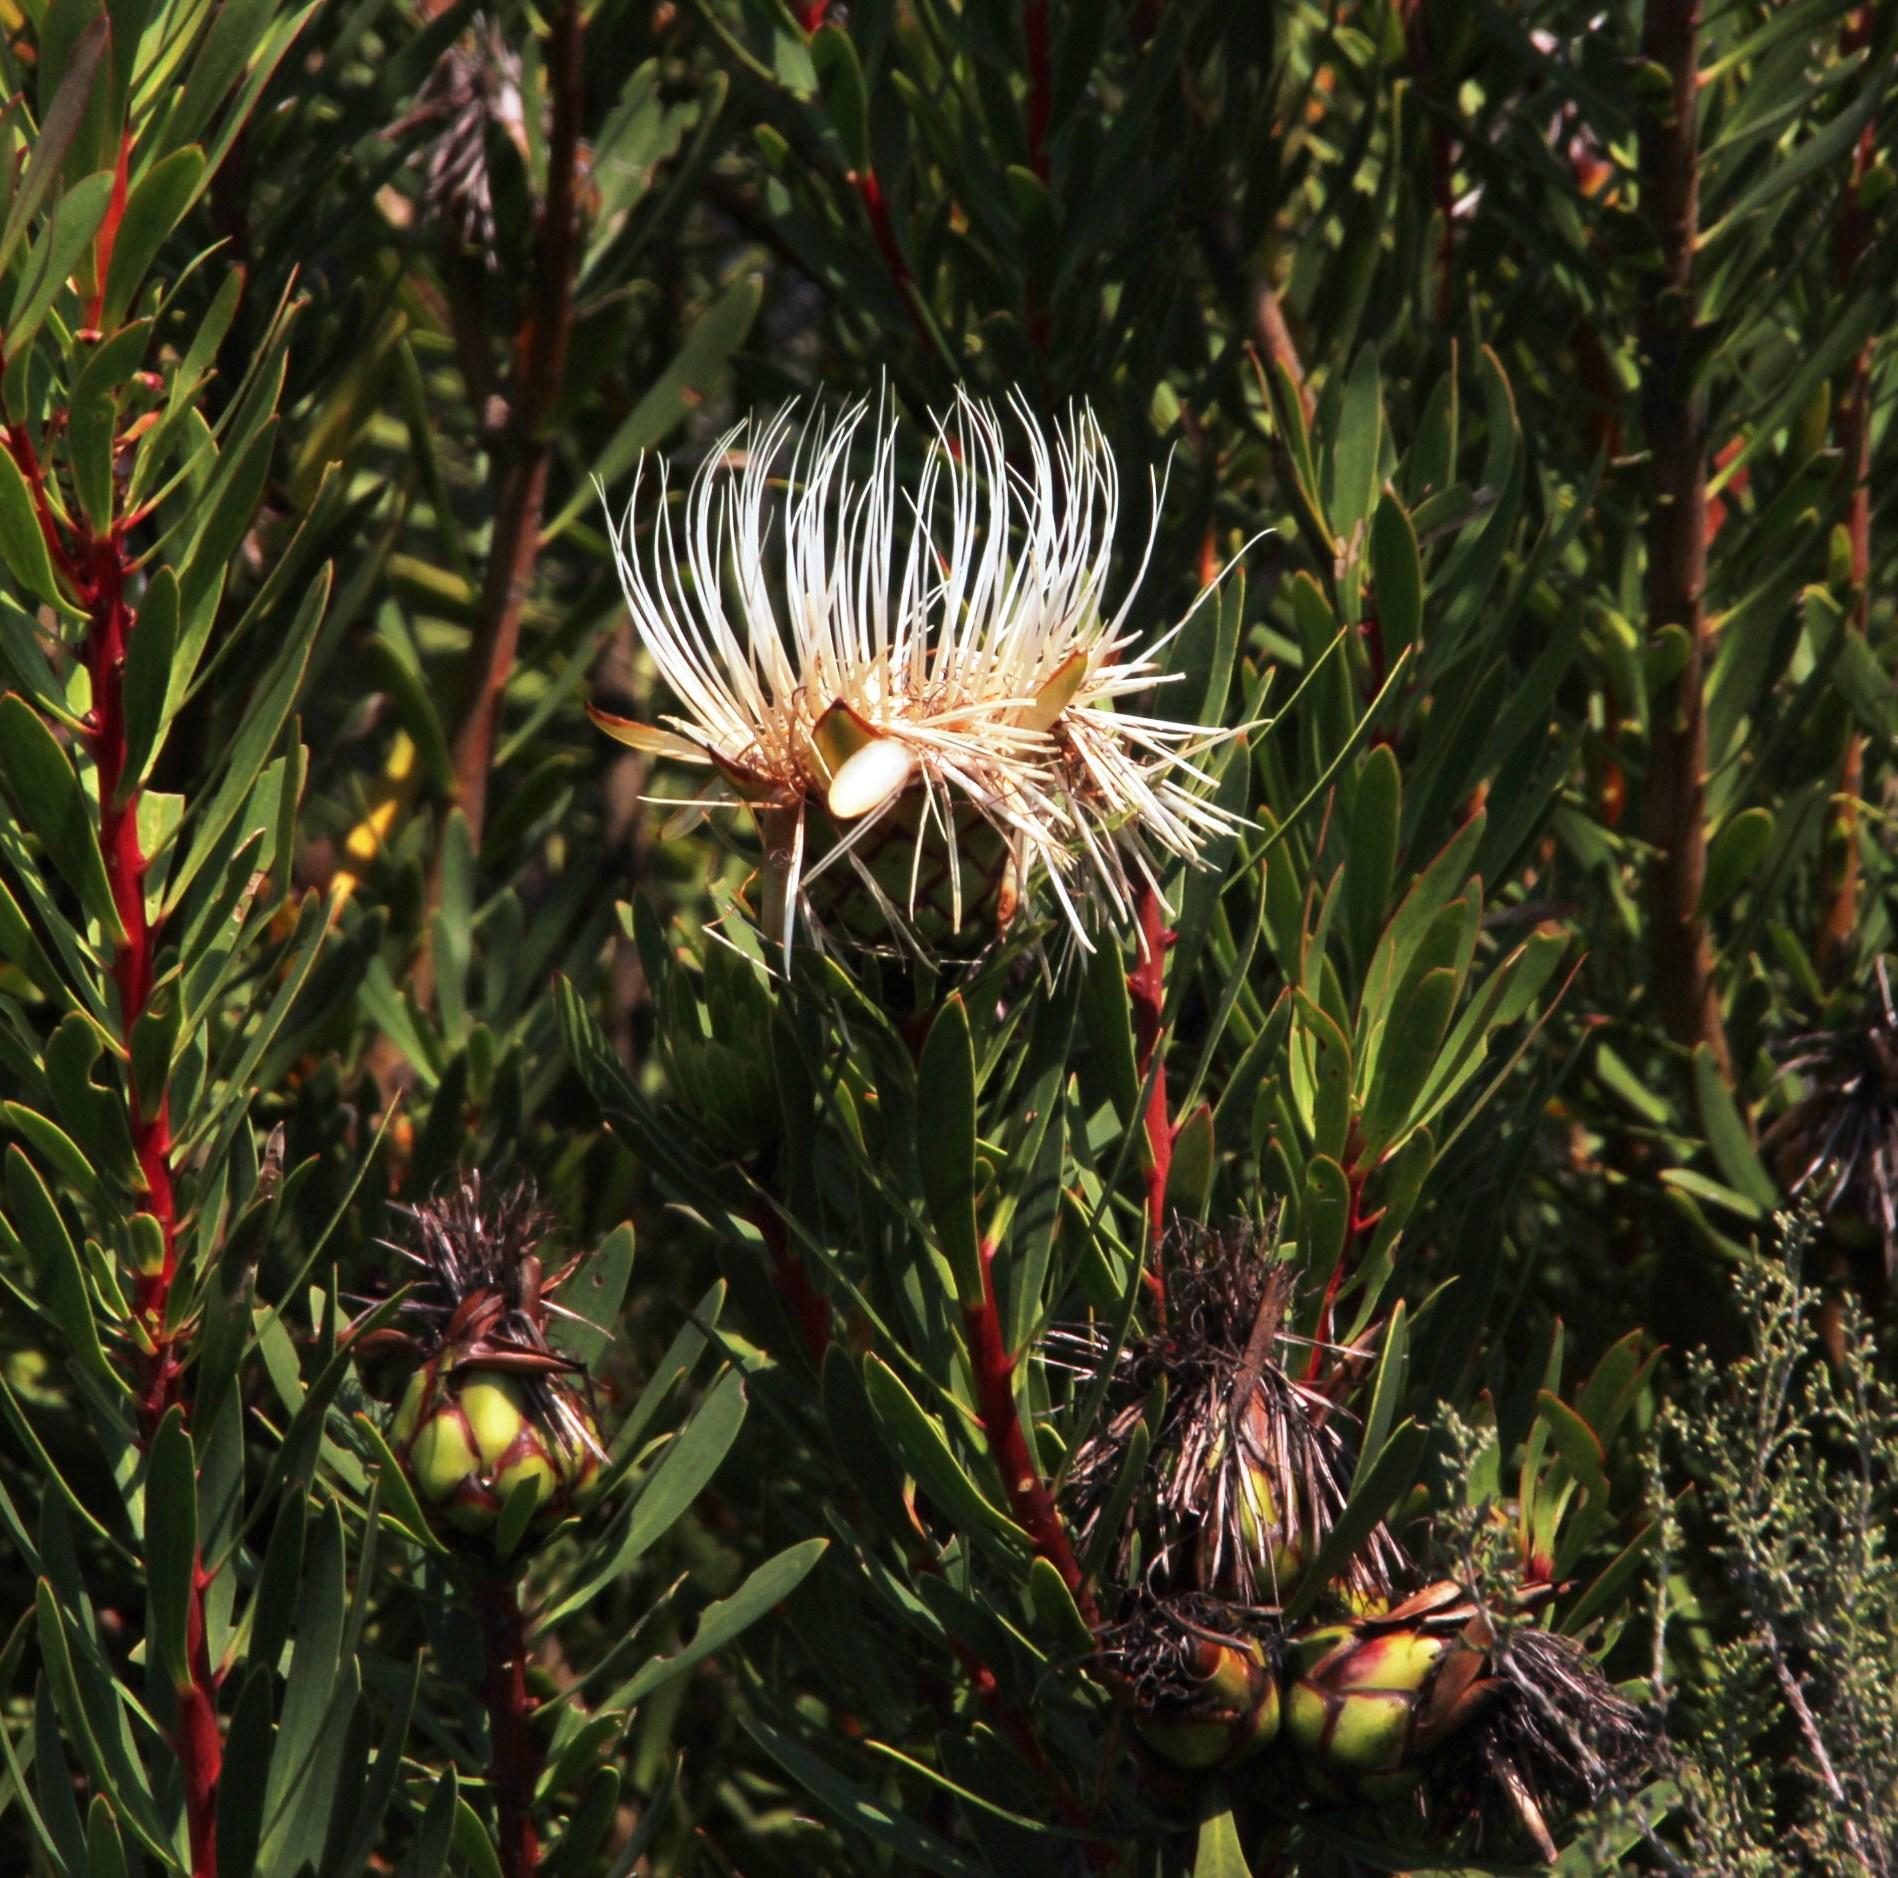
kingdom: Plantae
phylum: Tracheophyta
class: Magnoliopsida
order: Proteales
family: Proteaceae
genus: Protea
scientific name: Protea lanceolata
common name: Lance-leaved protea
